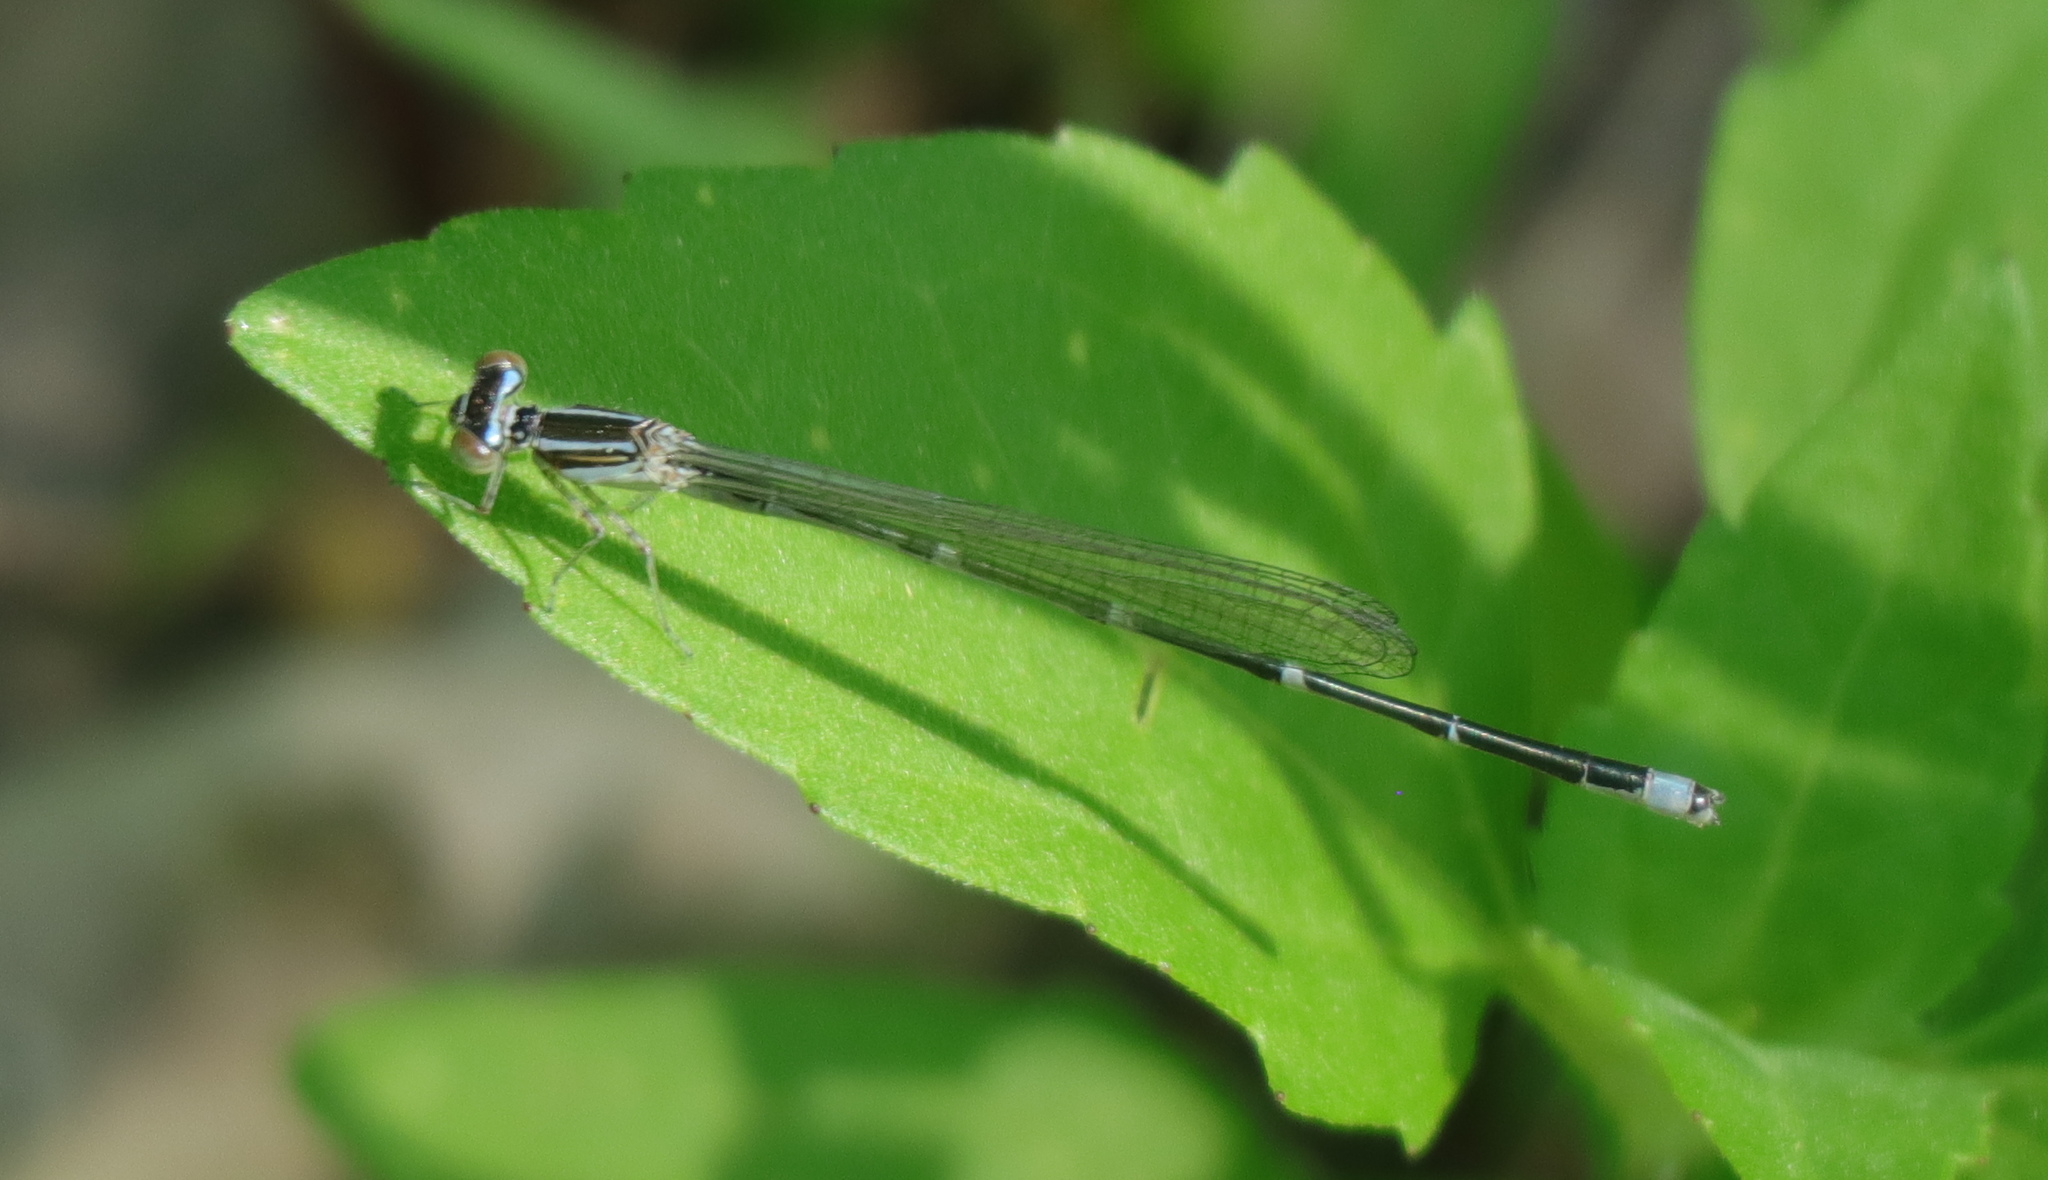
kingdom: Animalia
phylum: Arthropoda
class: Insecta
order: Odonata
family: Coenagrionidae
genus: Enallagma
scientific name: Enallagma exsulans
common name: Stream bluet
